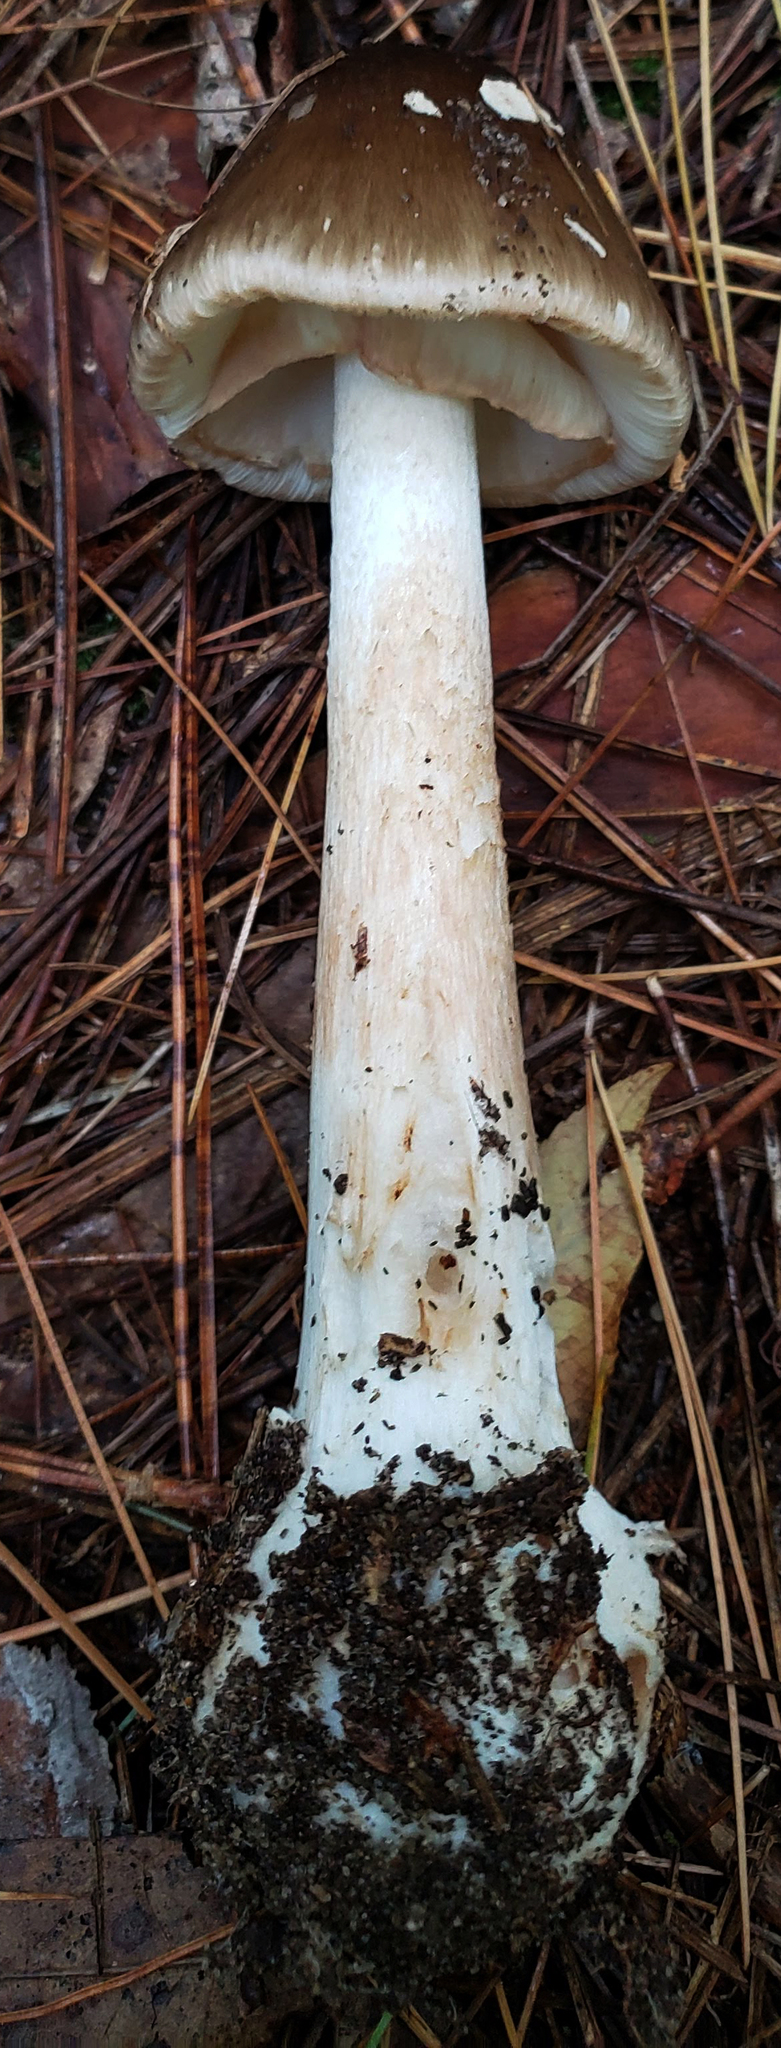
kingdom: Fungi
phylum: Basidiomycota
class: Agaricomycetes
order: Agaricales
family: Amanitaceae
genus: Amanita
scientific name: Amanita brunnescens
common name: Brown american star-footed amanita
